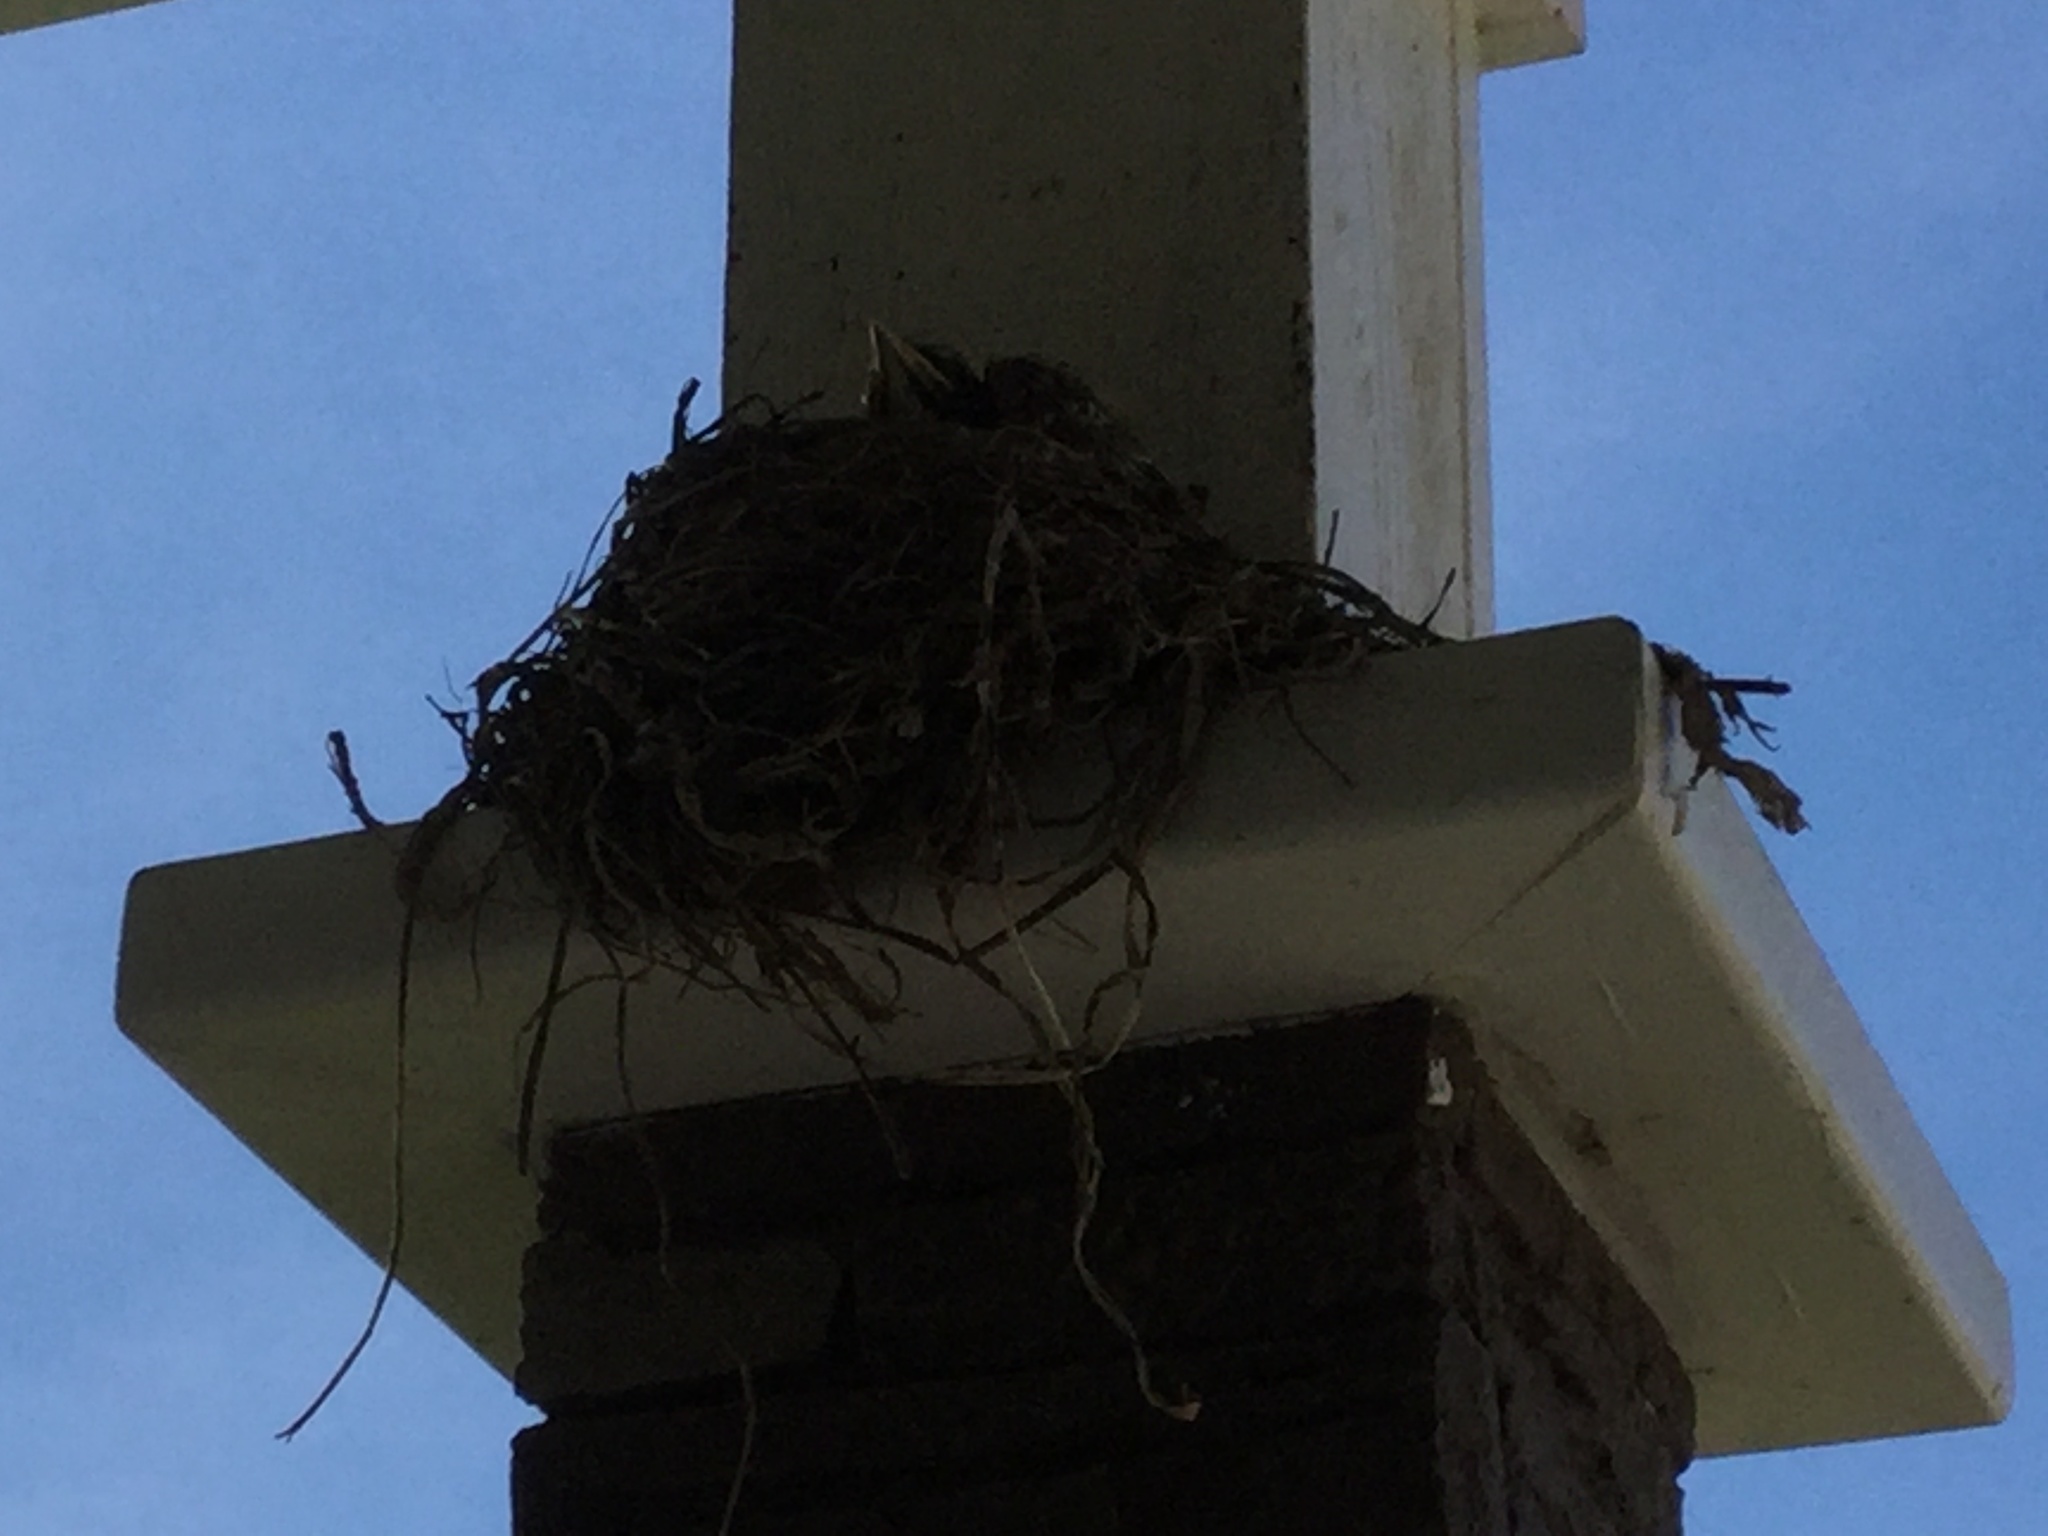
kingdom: Animalia
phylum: Chordata
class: Aves
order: Passeriformes
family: Turdidae
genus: Turdus
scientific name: Turdus migratorius
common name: American robin
